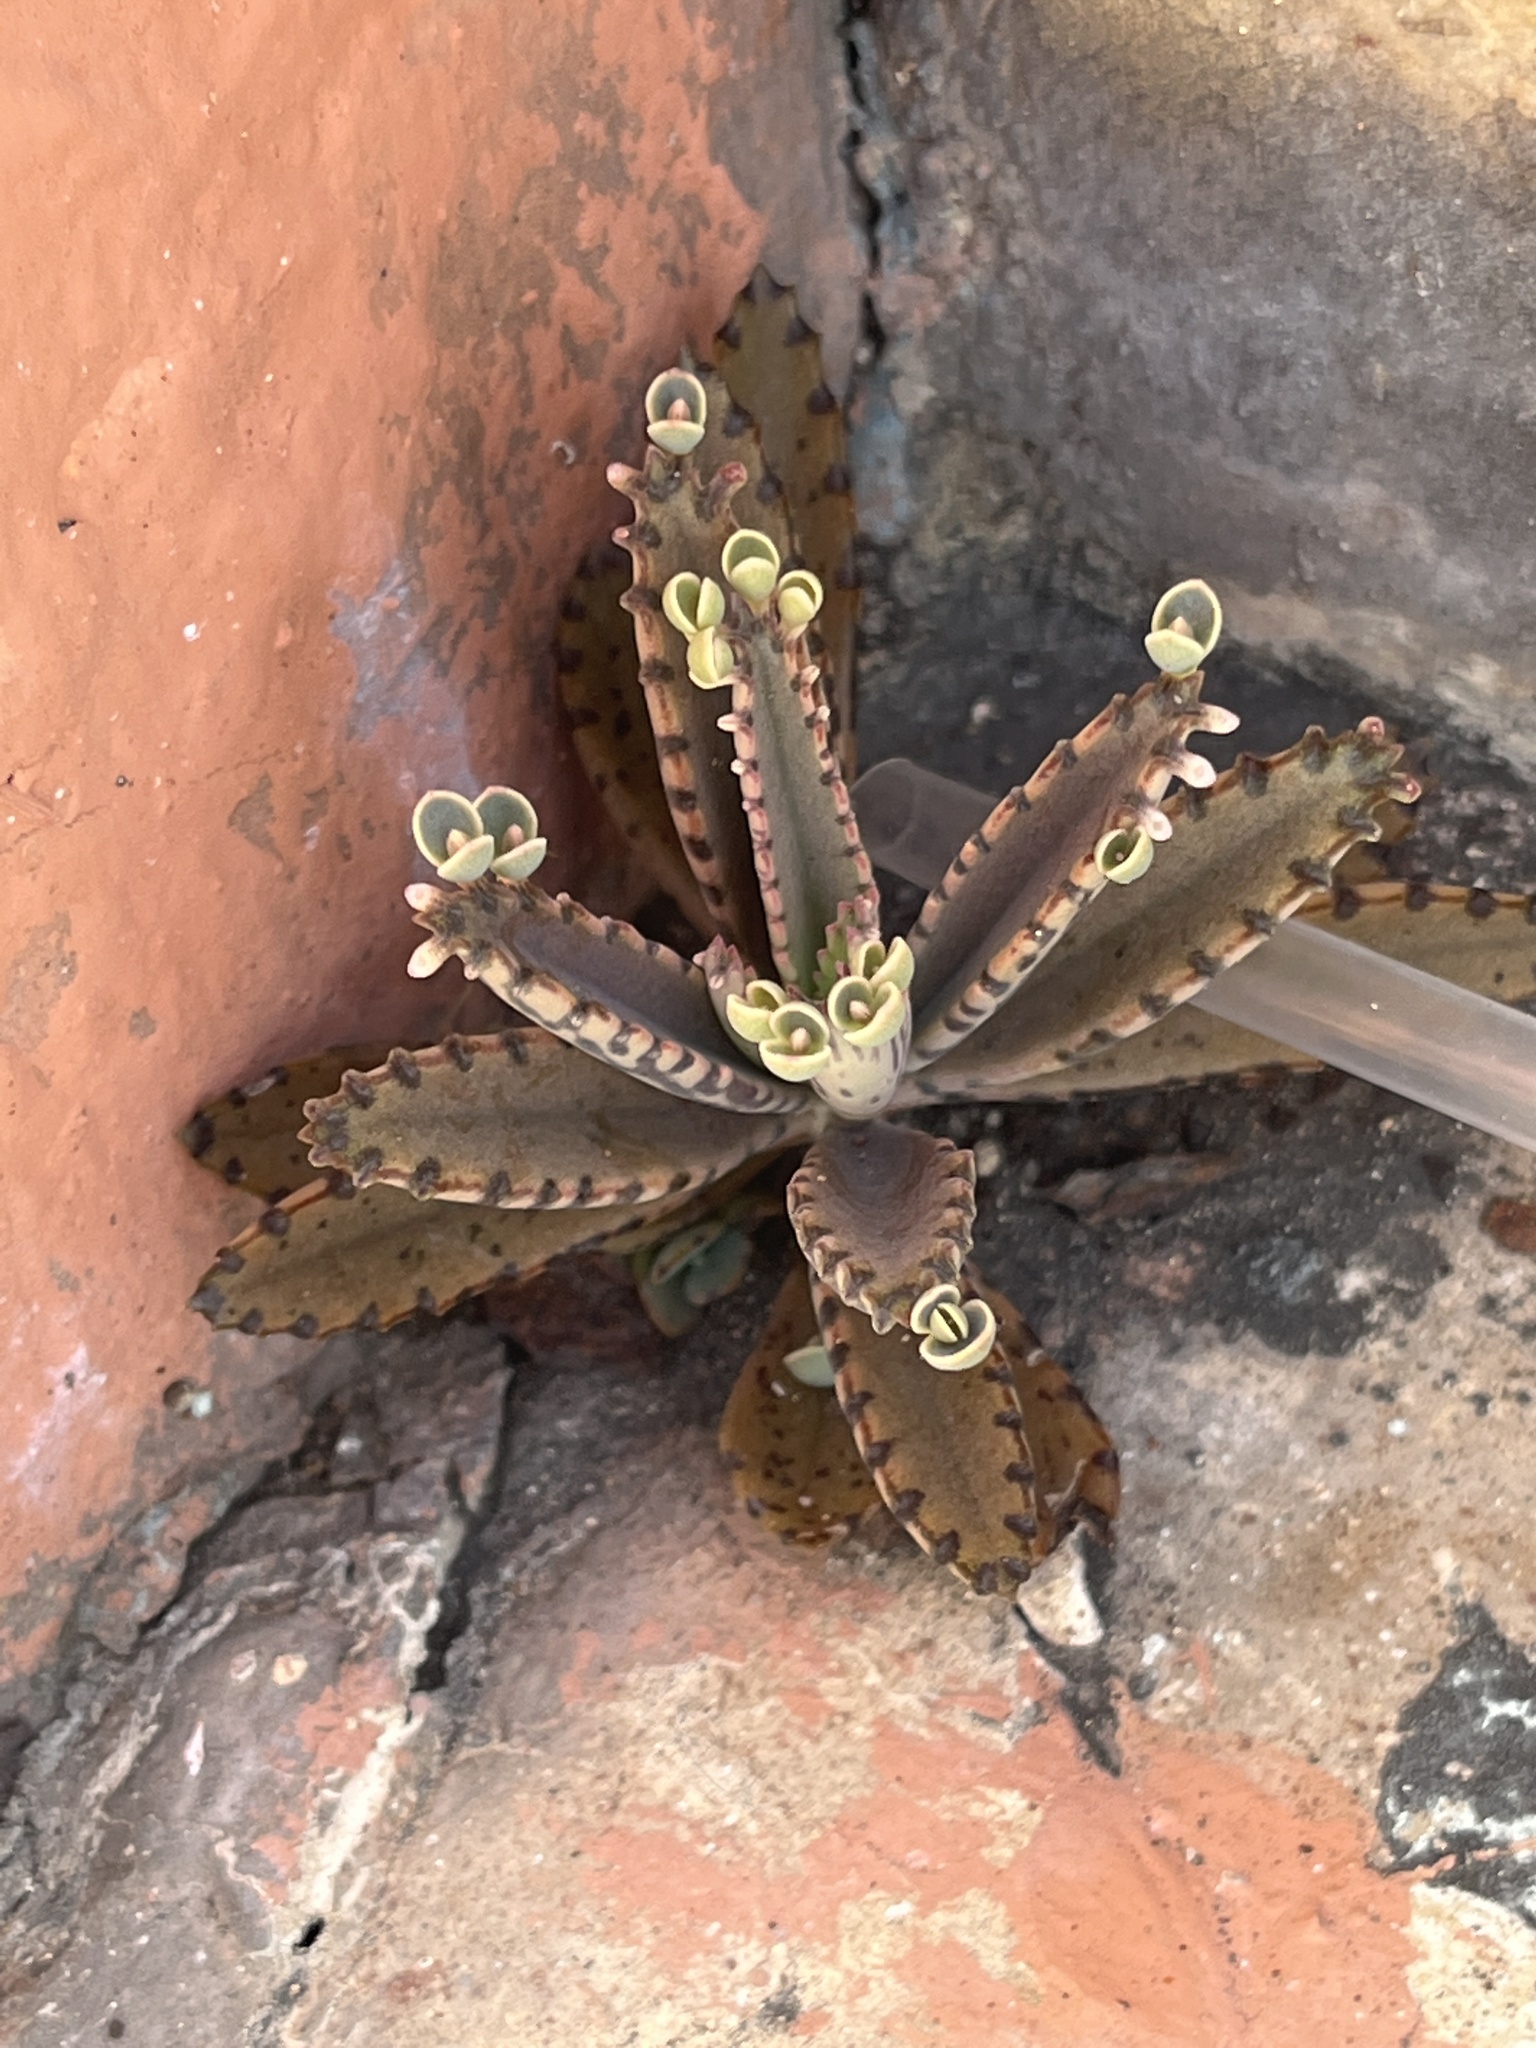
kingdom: Plantae
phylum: Tracheophyta
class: Magnoliopsida
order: Saxifragales
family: Crassulaceae
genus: Kalanchoe
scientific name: Kalanchoe houghtonii
